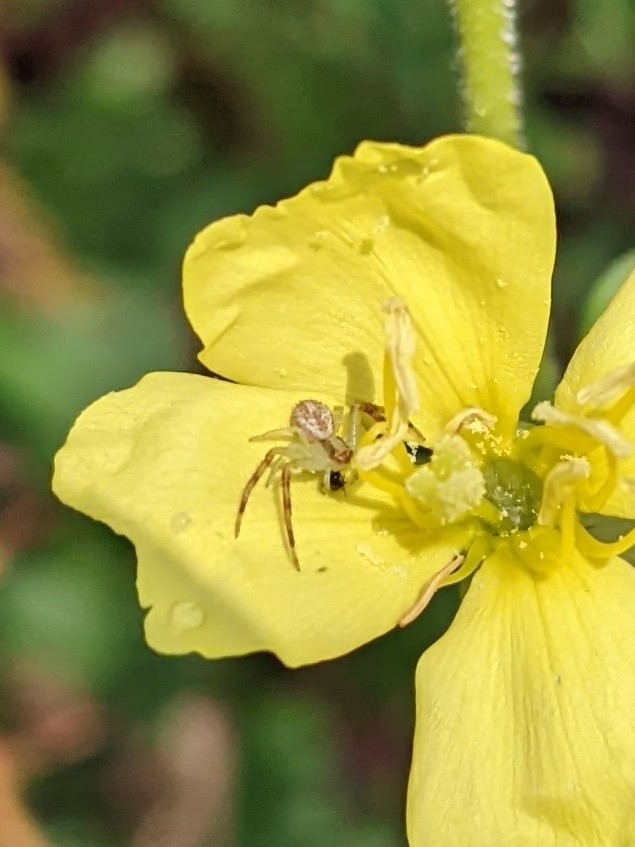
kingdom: Animalia
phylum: Arthropoda
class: Arachnida
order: Araneae
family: Thomisidae
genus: Mecaphesa
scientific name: Mecaphesa asperata
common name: Crab spiders
